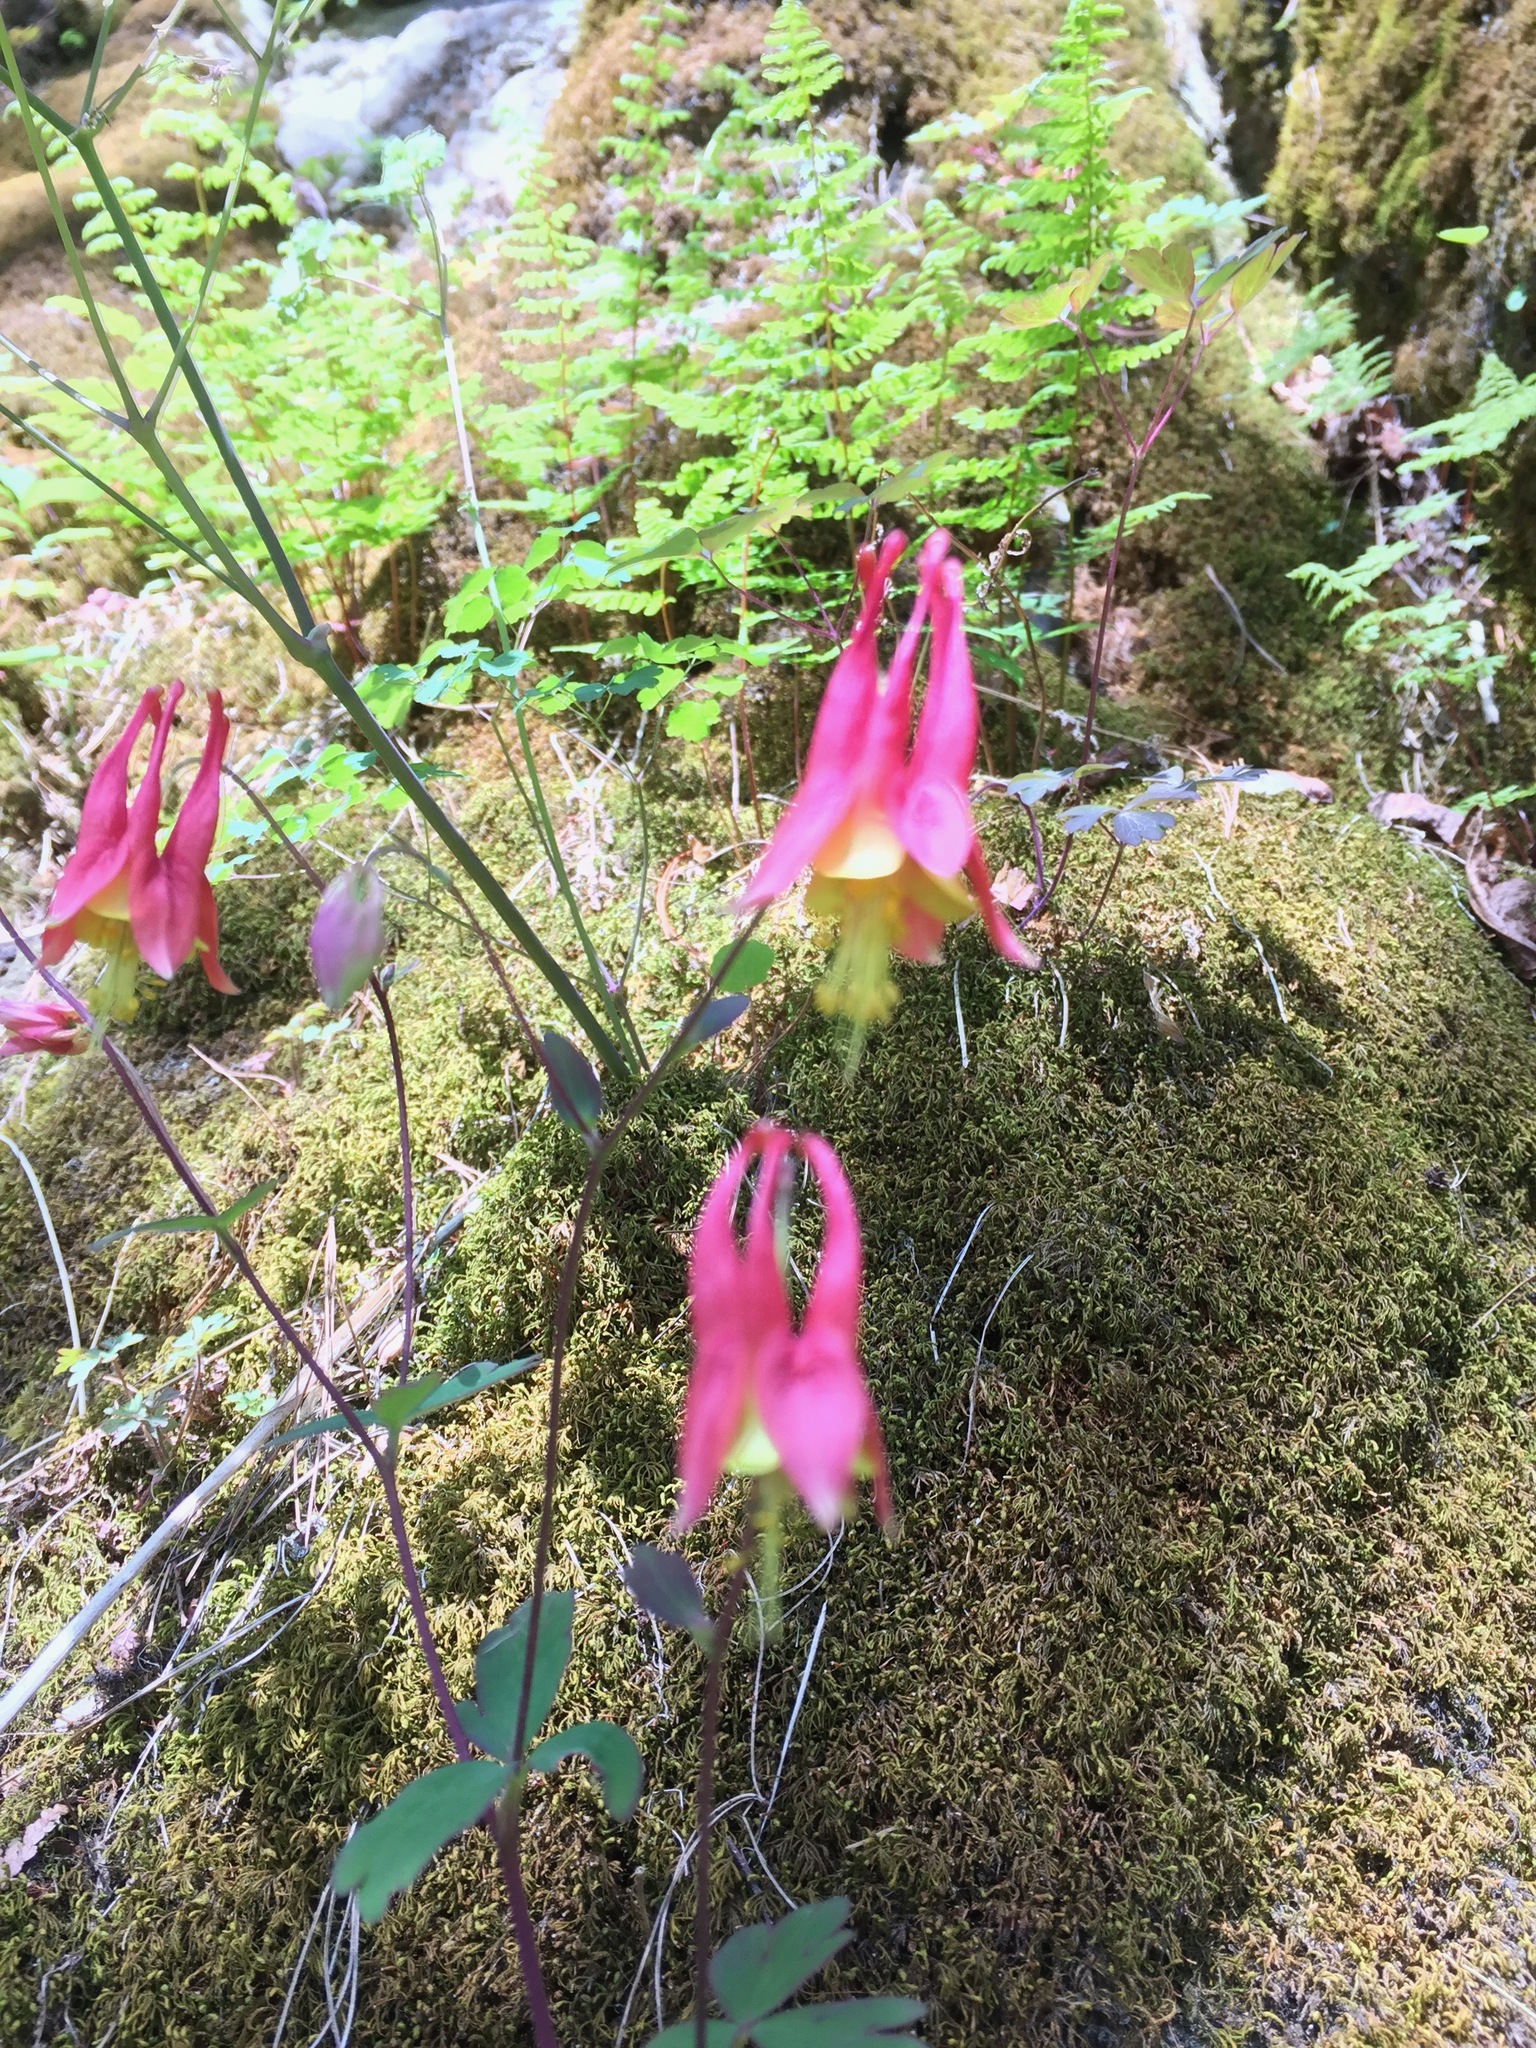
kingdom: Plantae
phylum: Tracheophyta
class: Magnoliopsida
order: Ranunculales
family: Ranunculaceae
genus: Aquilegia
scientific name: Aquilegia canadensis
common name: American columbine
